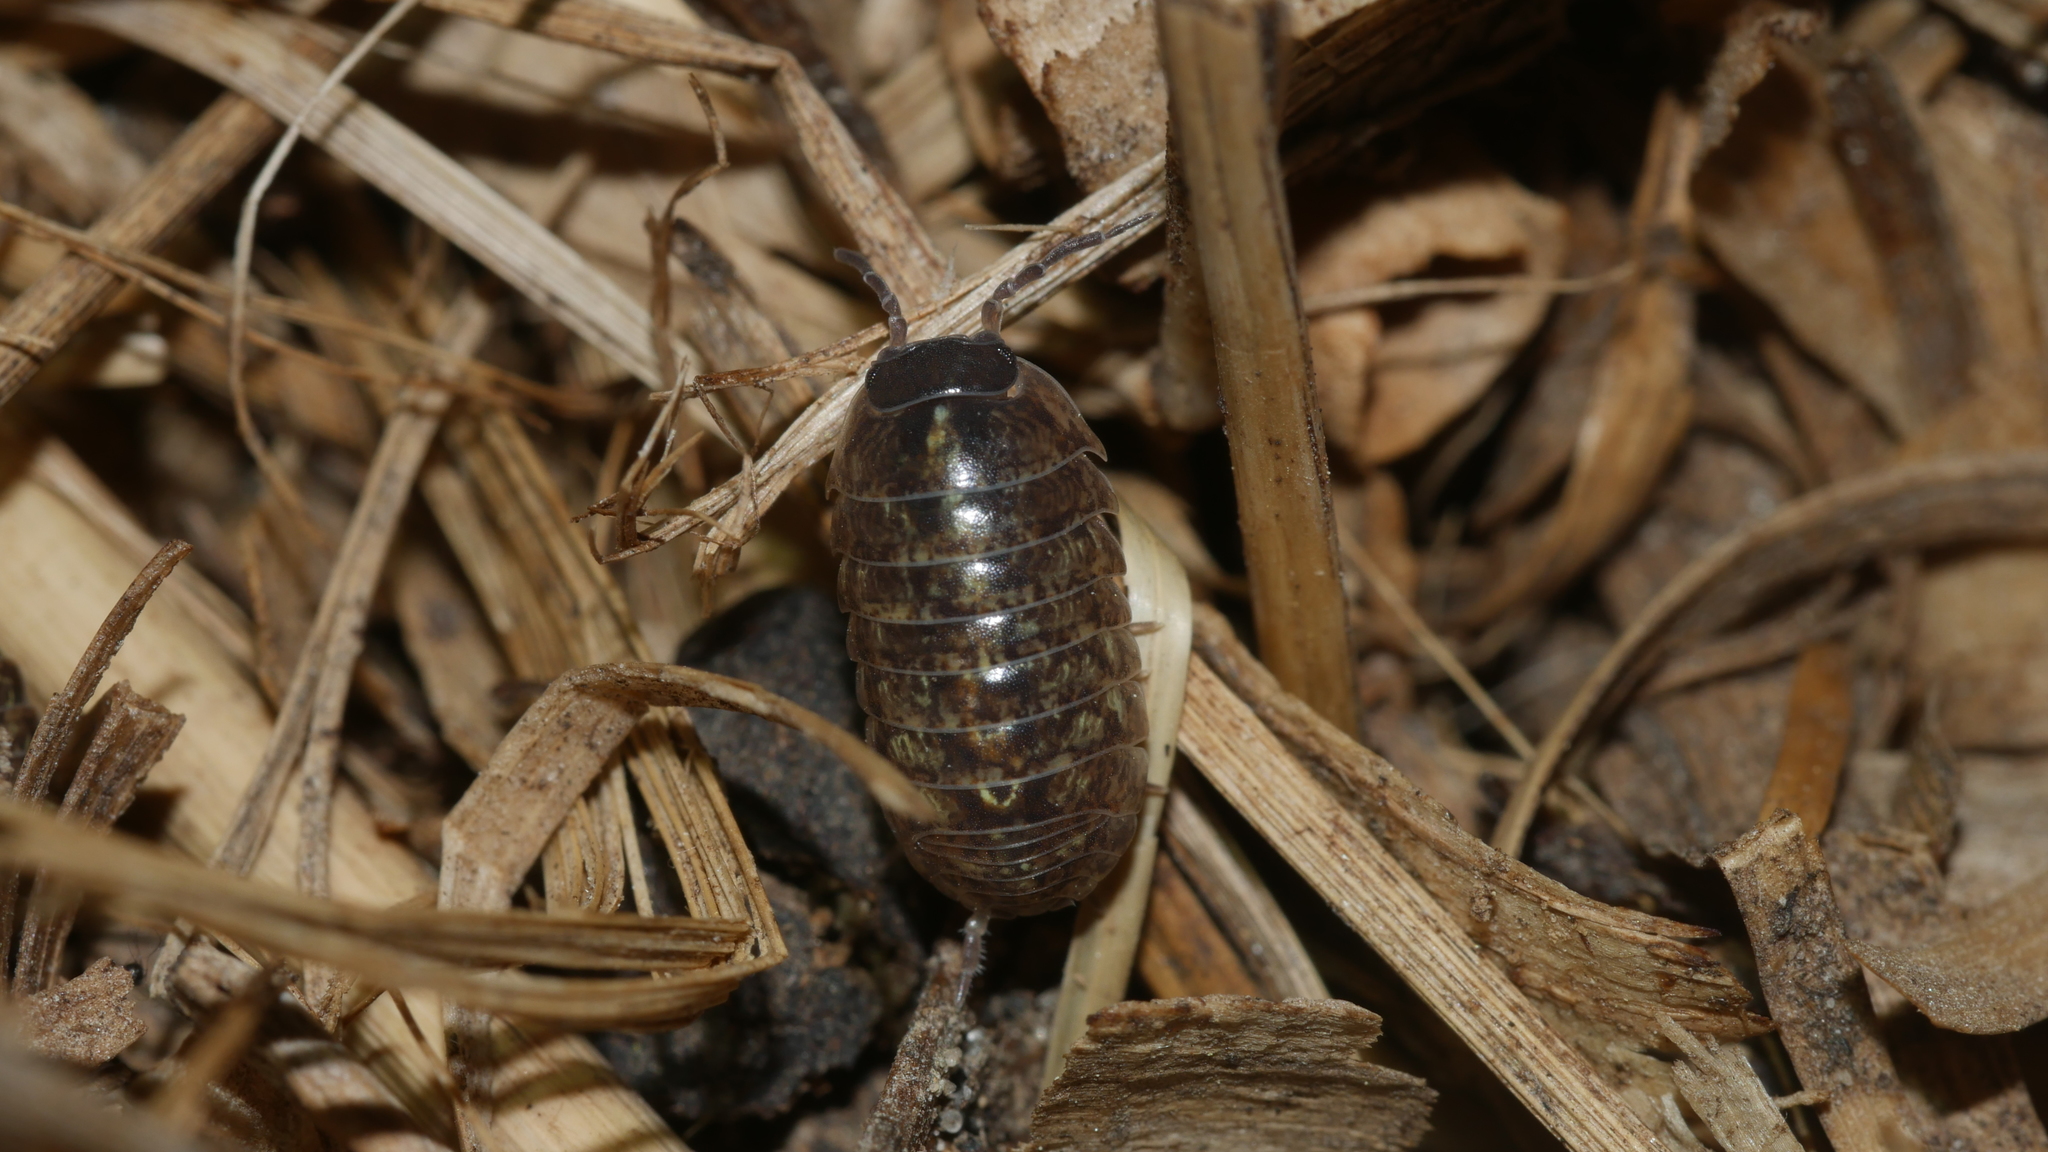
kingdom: Animalia
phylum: Arthropoda
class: Malacostraca
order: Isopoda
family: Armadillidiidae
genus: Armadillidium
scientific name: Armadillidium vulgare
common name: Common pill woodlouse
